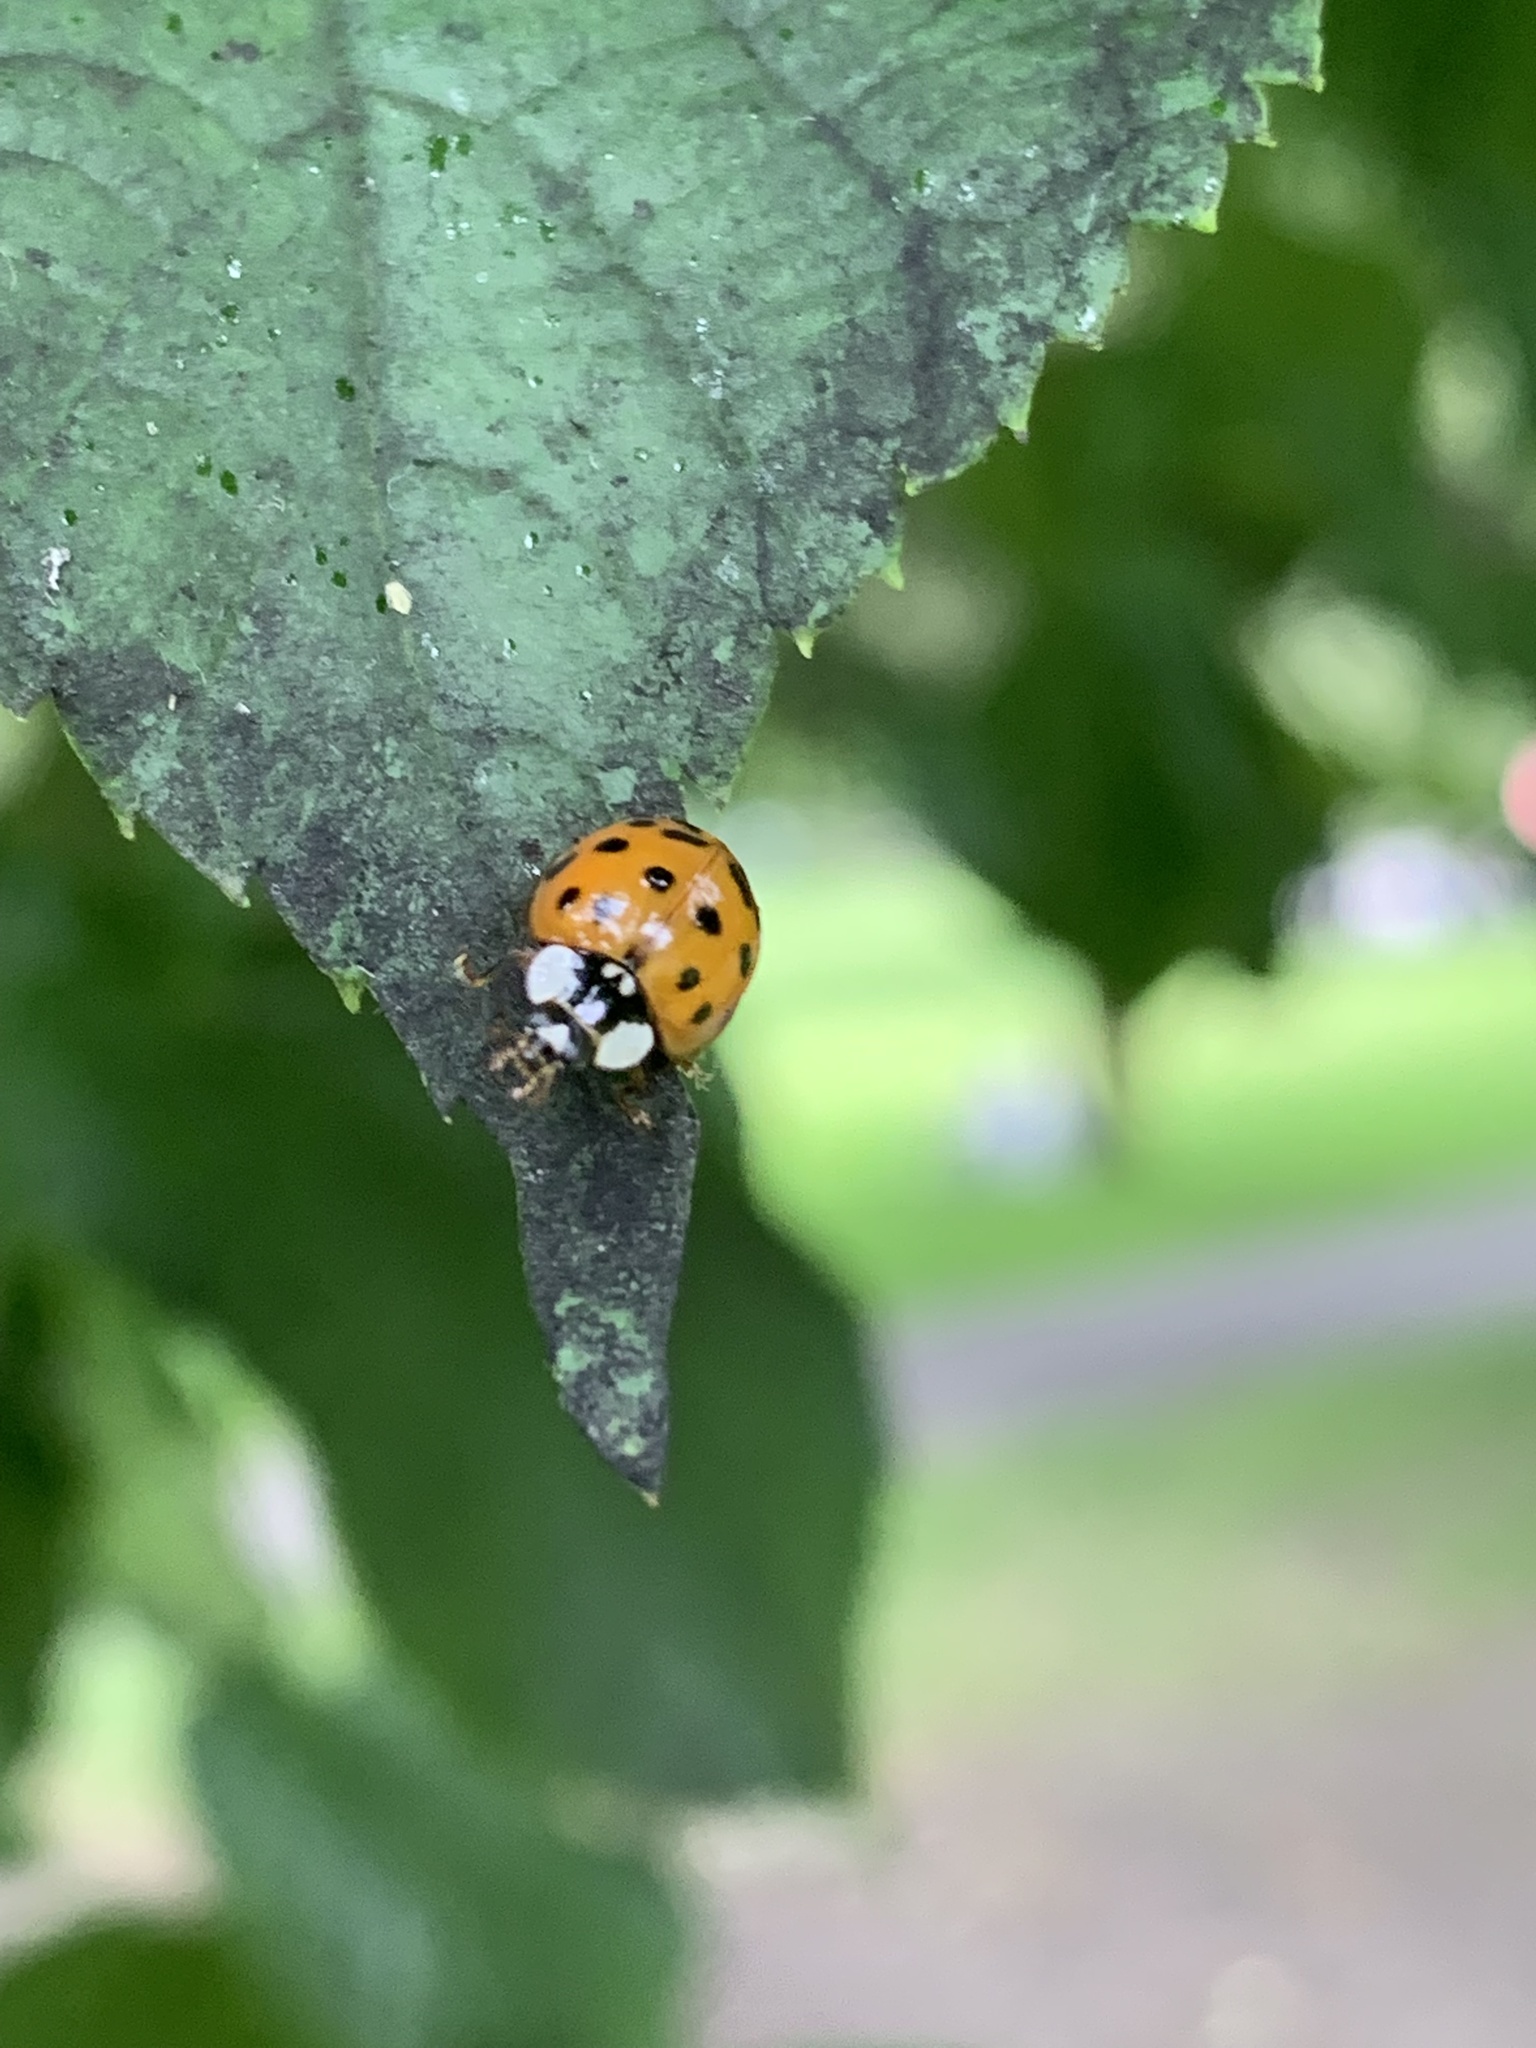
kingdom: Animalia
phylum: Arthropoda
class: Insecta
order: Coleoptera
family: Coccinellidae
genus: Harmonia
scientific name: Harmonia axyridis
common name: Harlequin ladybird
